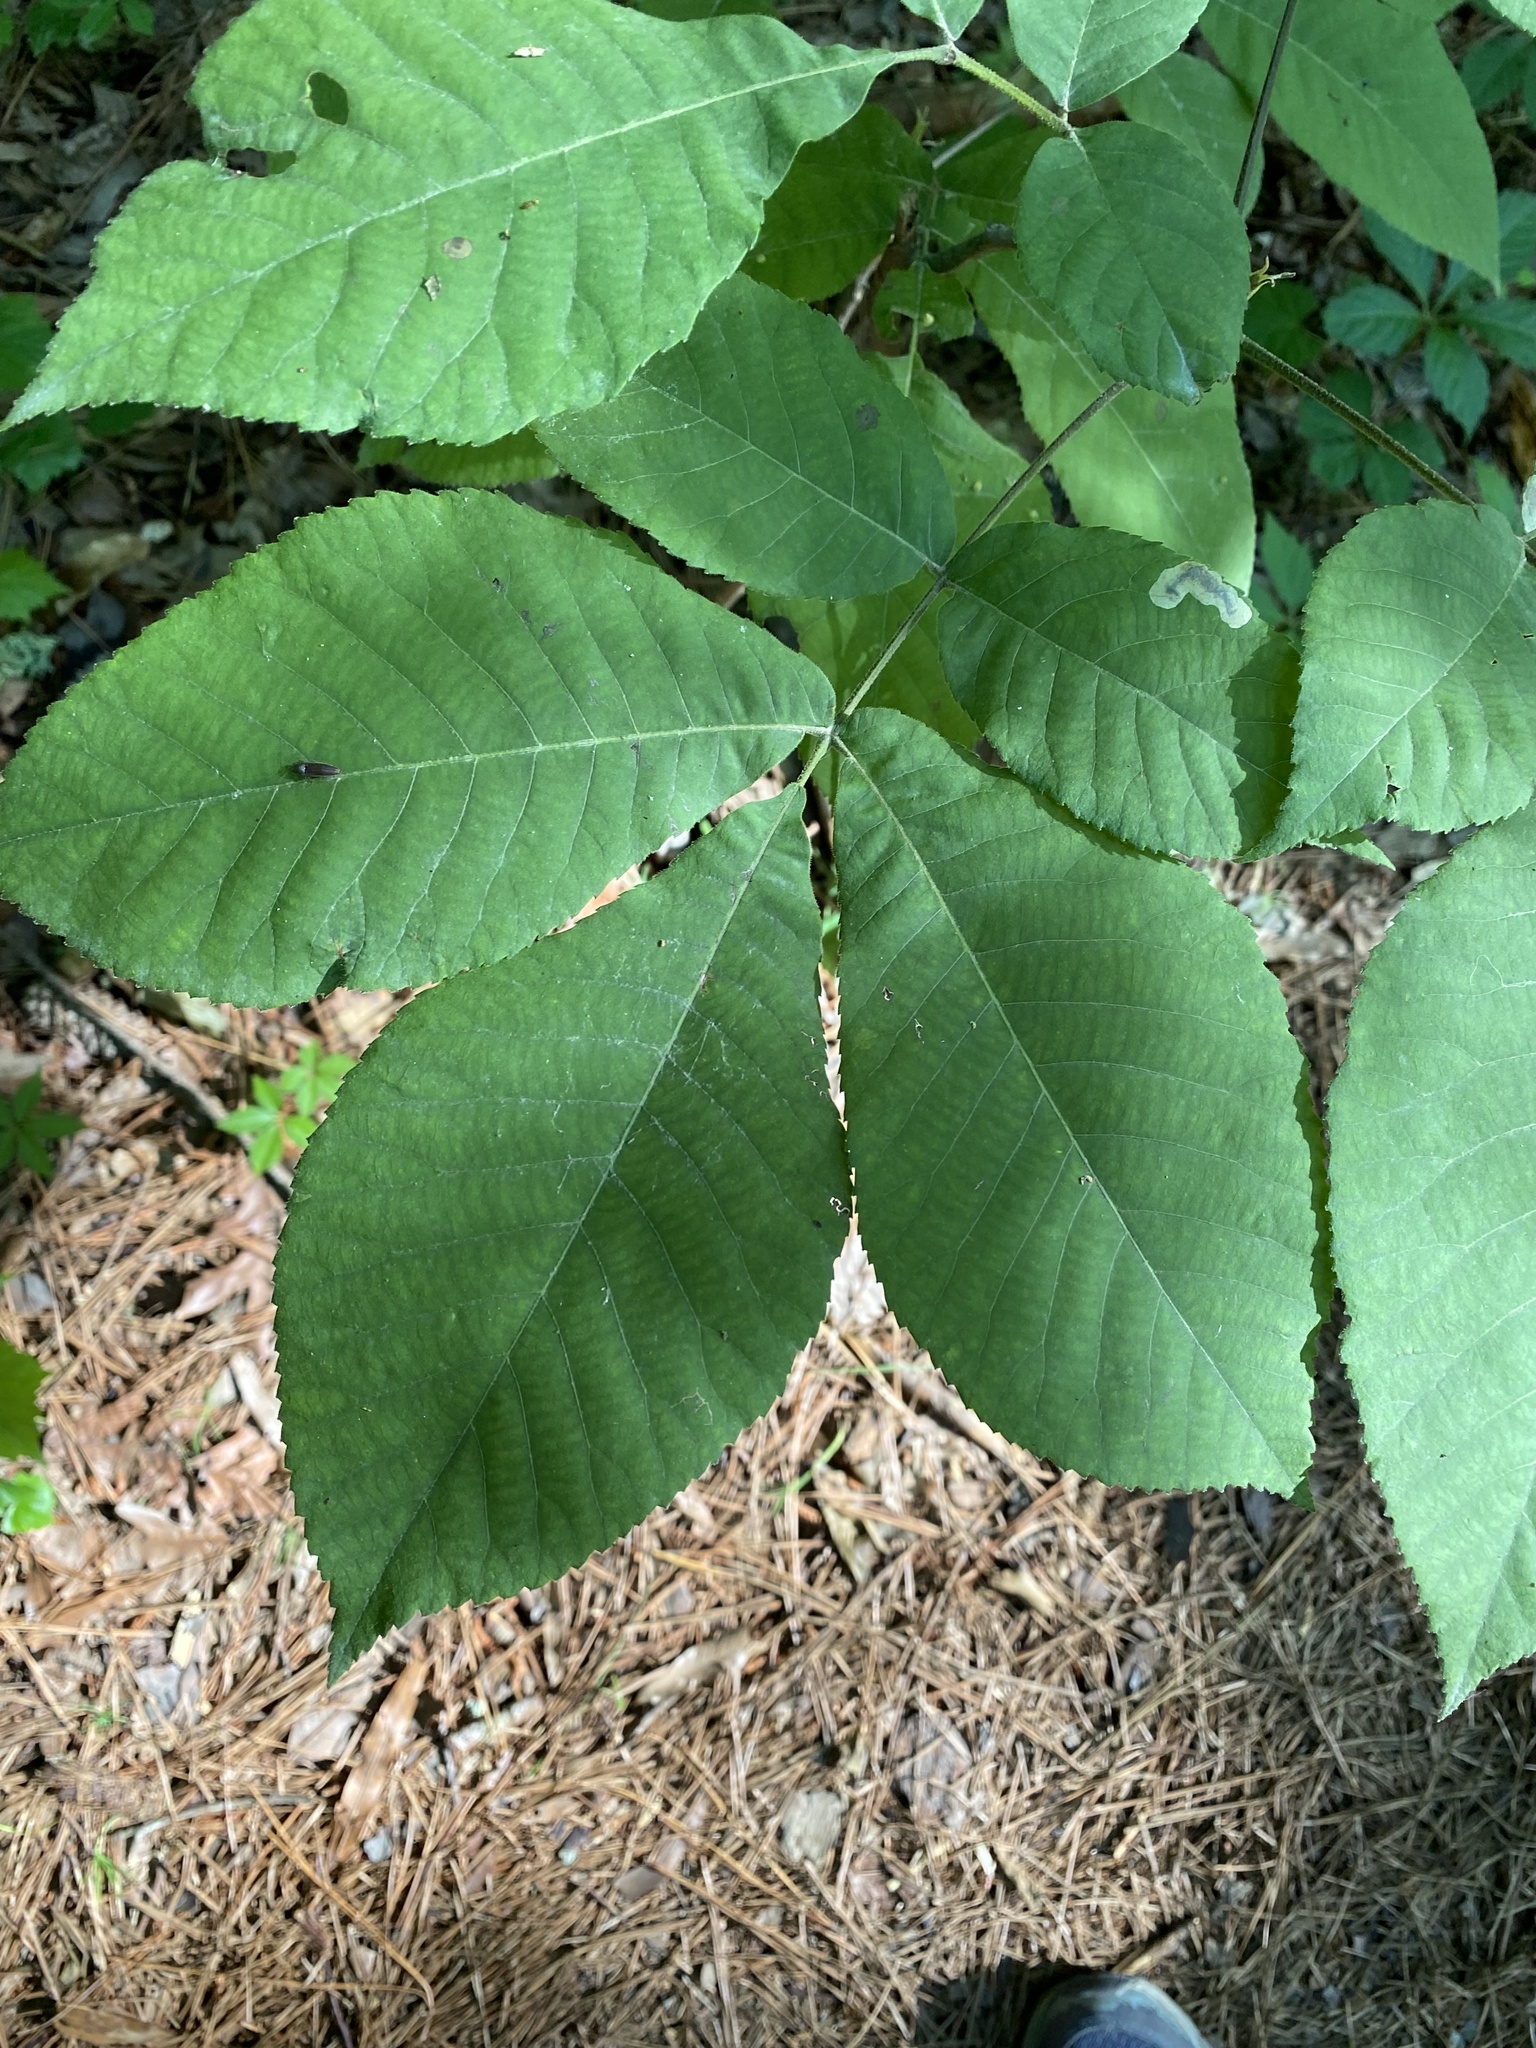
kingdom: Plantae
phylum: Tracheophyta
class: Magnoliopsida
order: Fagales
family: Juglandaceae
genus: Carya
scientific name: Carya alba
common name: Mockernut hickory
